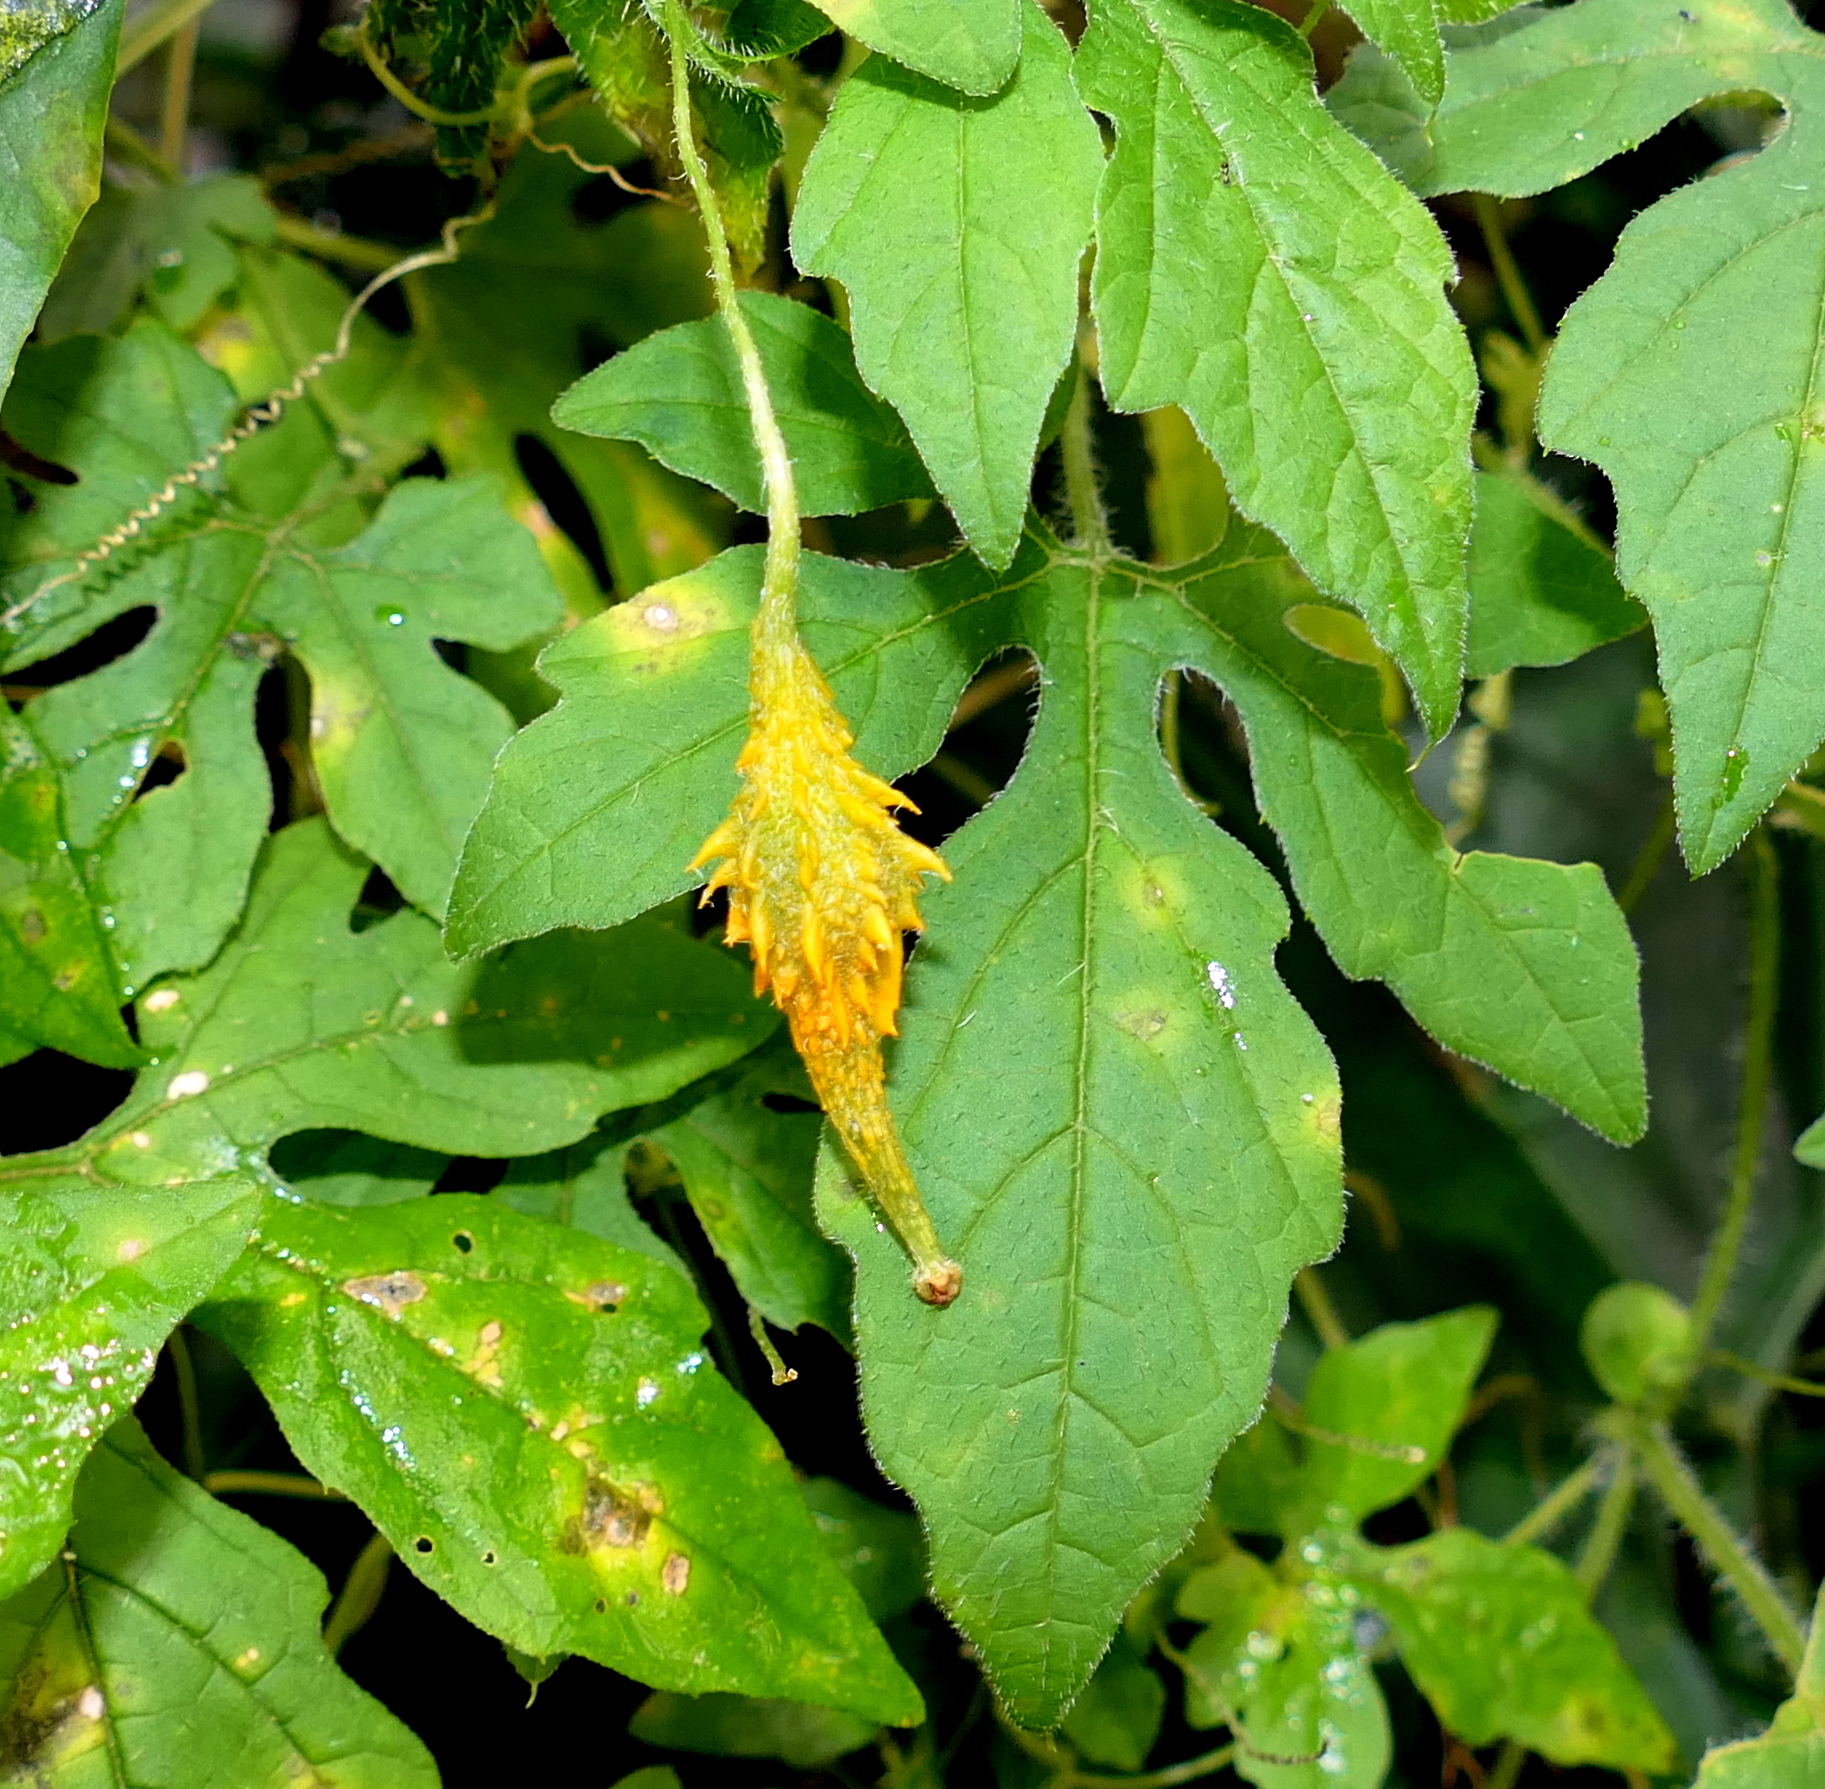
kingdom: Plantae
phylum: Tracheophyta
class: Magnoliopsida
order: Cucurbitales
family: Cucurbitaceae
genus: Momordica
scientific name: Momordica charantia
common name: Balsampear
